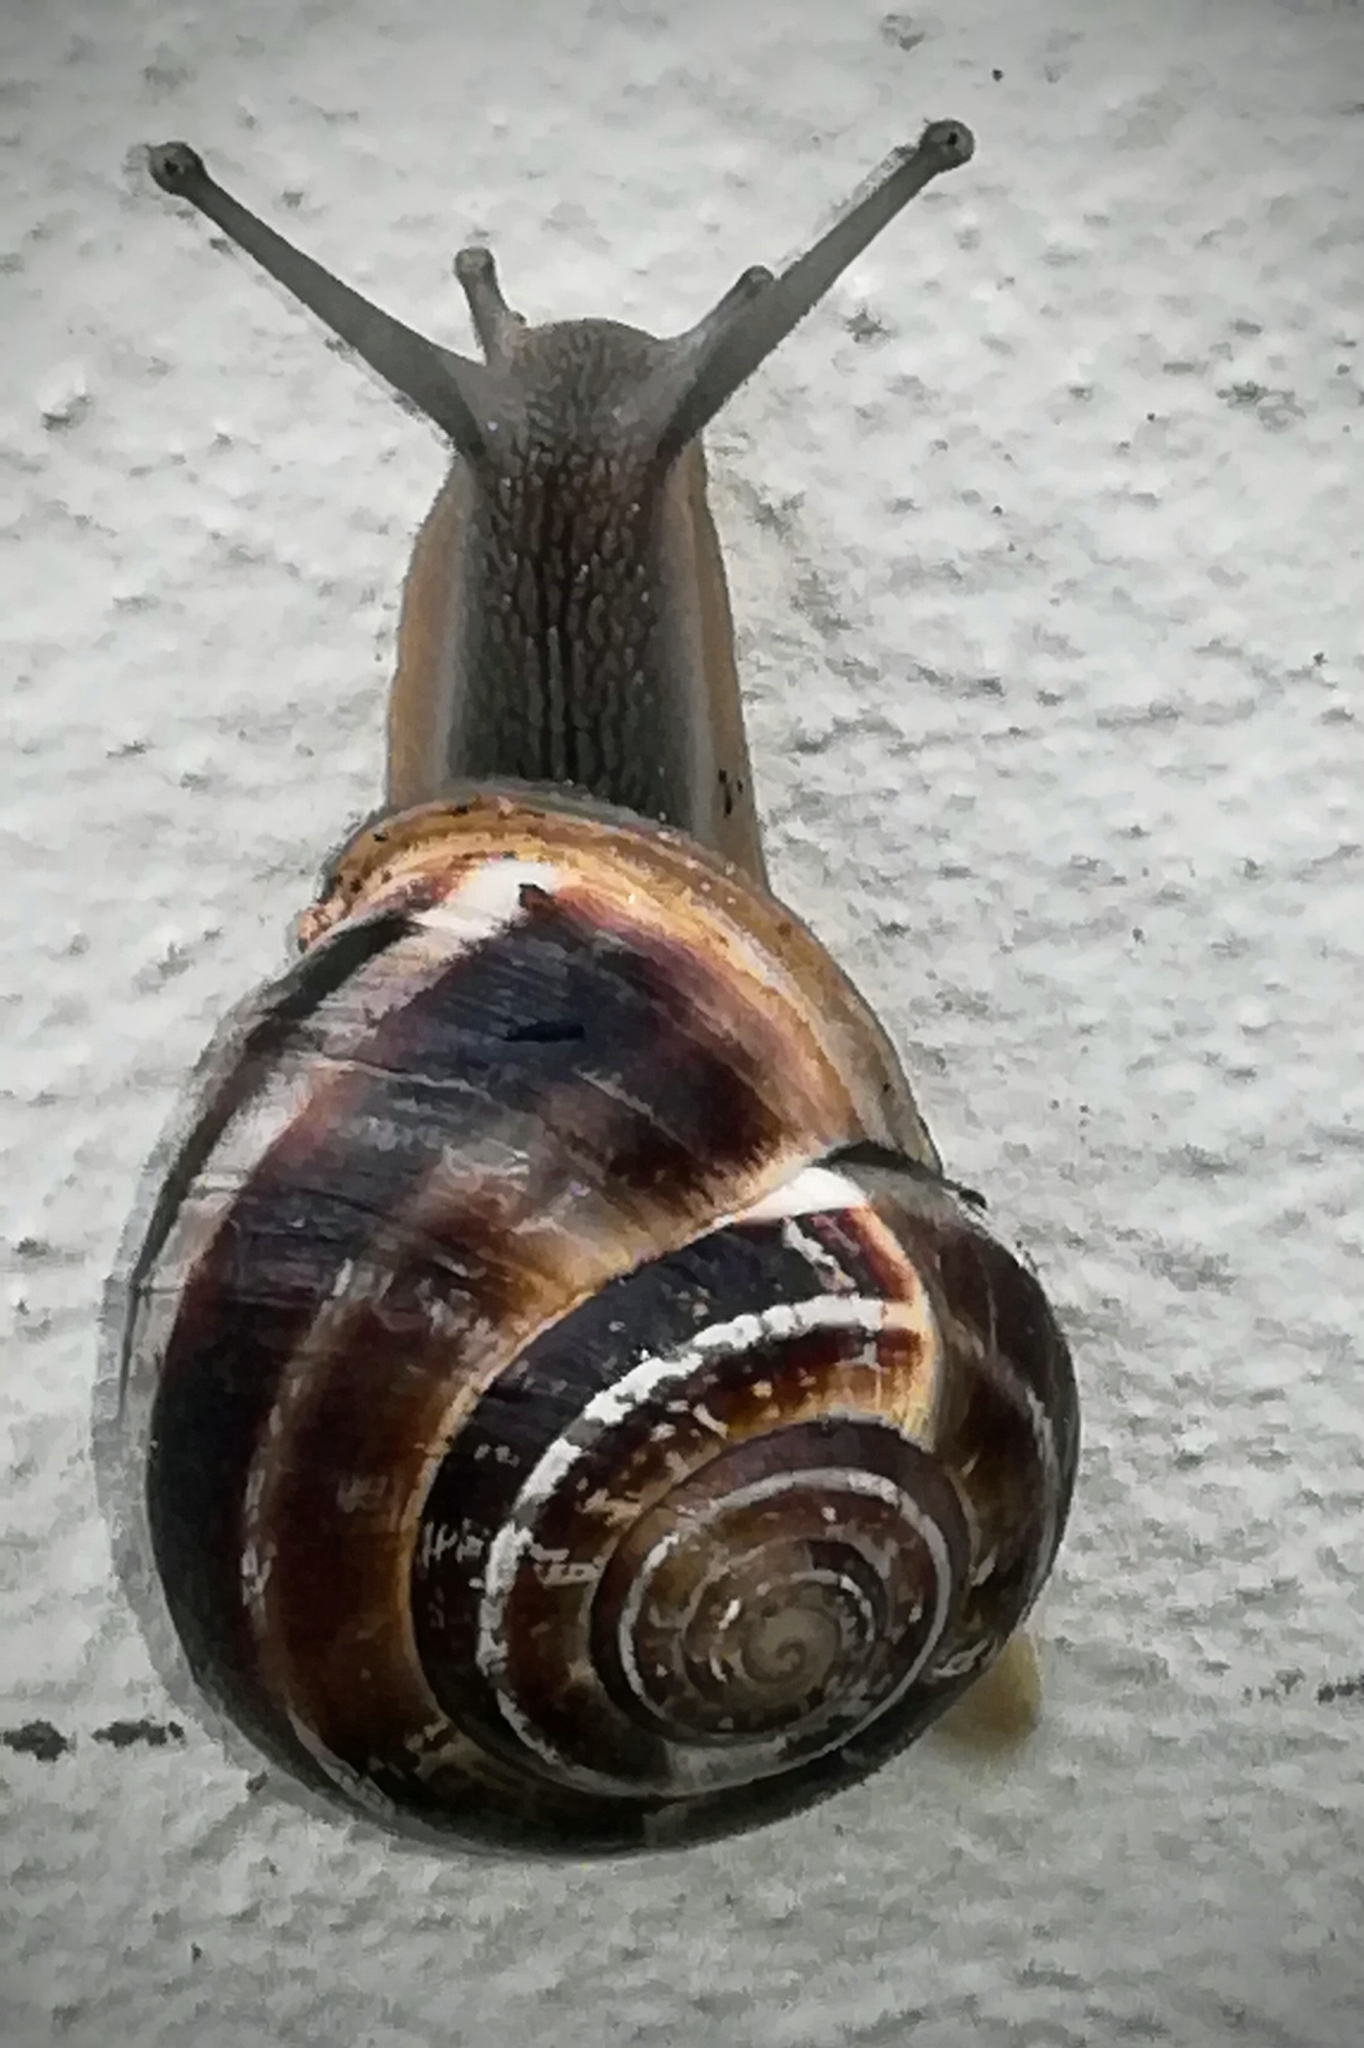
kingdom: Animalia
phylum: Mollusca
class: Gastropoda
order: Stylommatophora
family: Helicidae
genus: Eobania
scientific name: Eobania vermiculata
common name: Chocolateband snail
